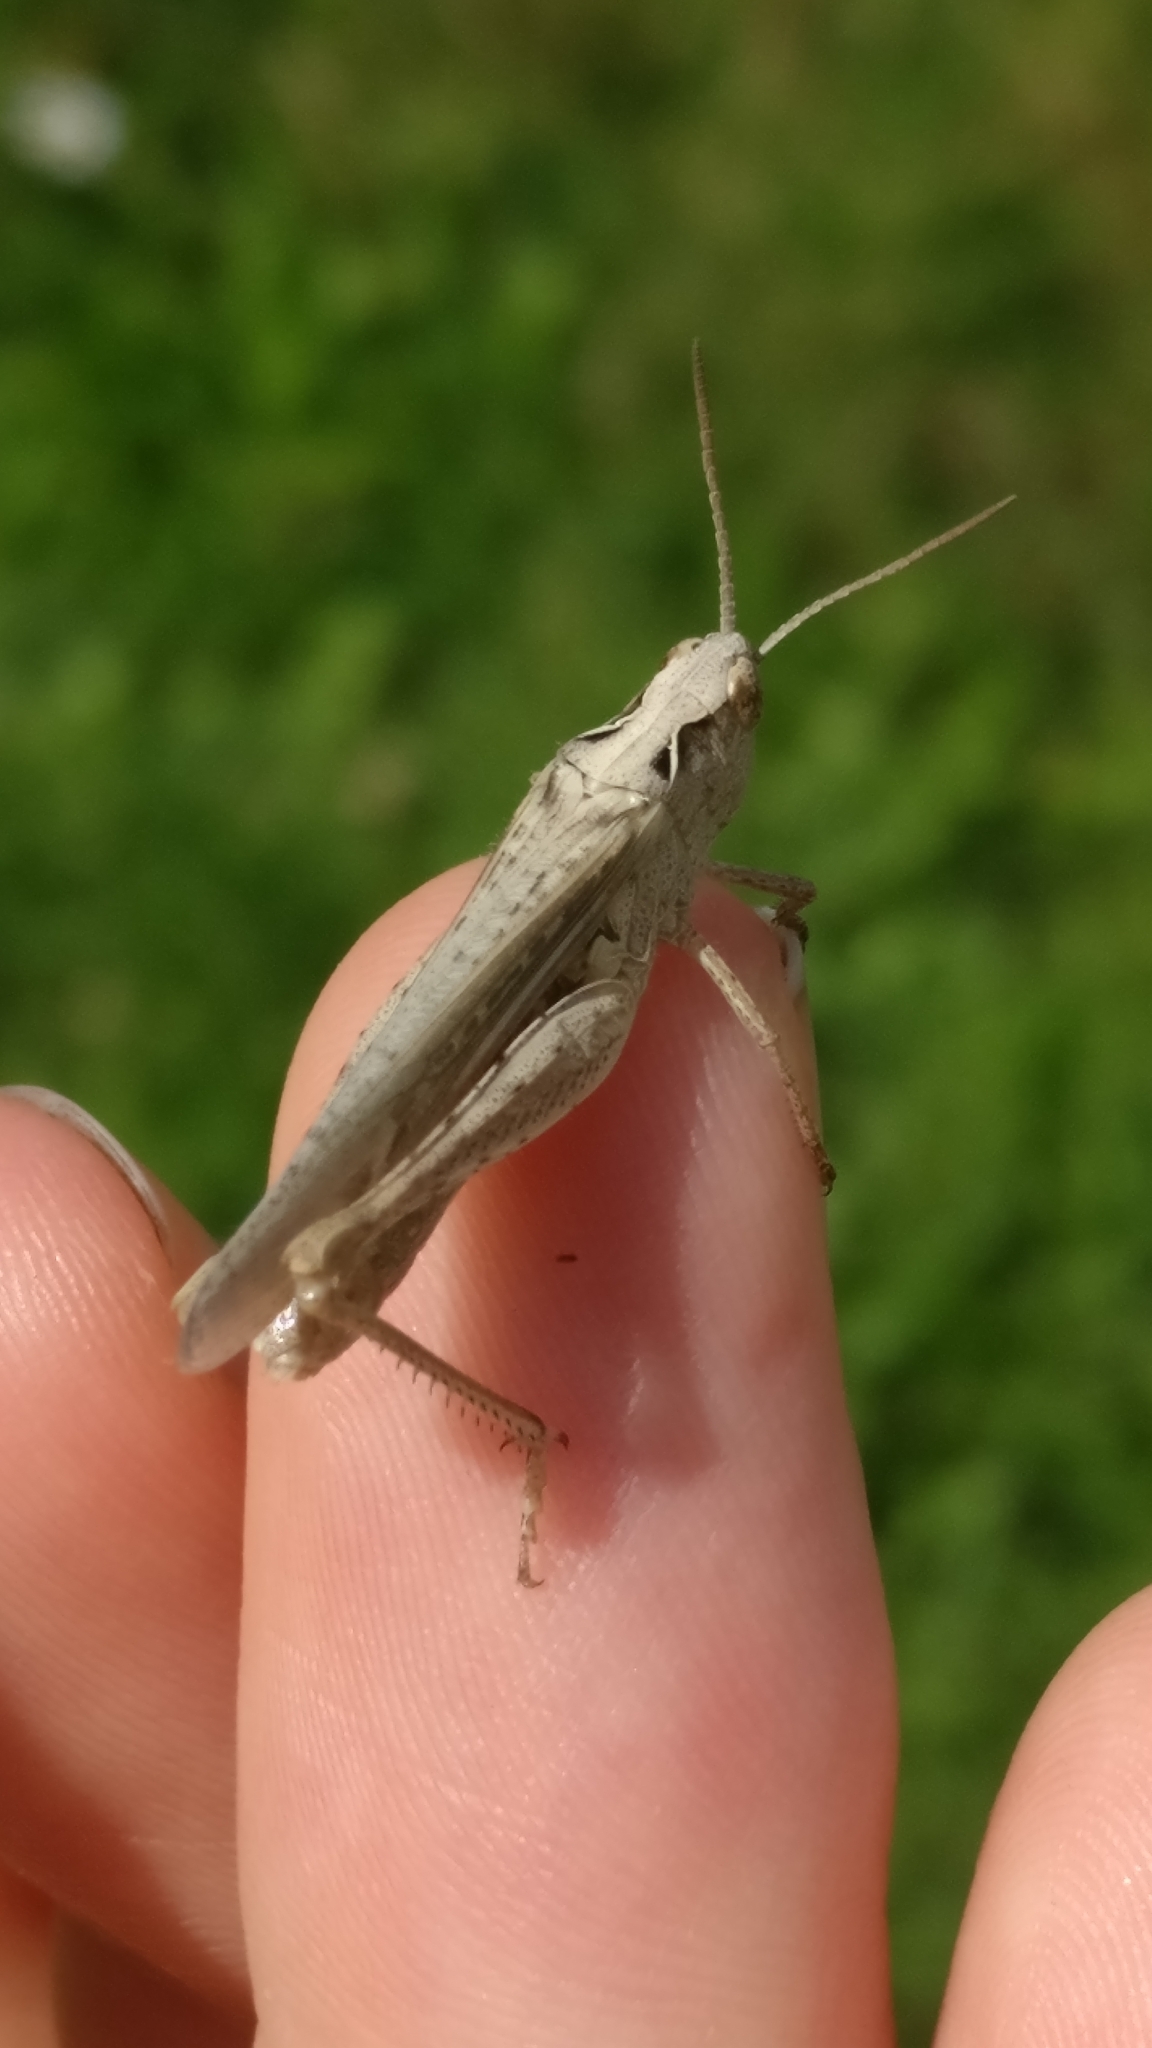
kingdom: Animalia
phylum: Arthropoda
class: Insecta
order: Orthoptera
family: Acrididae
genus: Glyptobothrus
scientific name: Glyptobothrus
